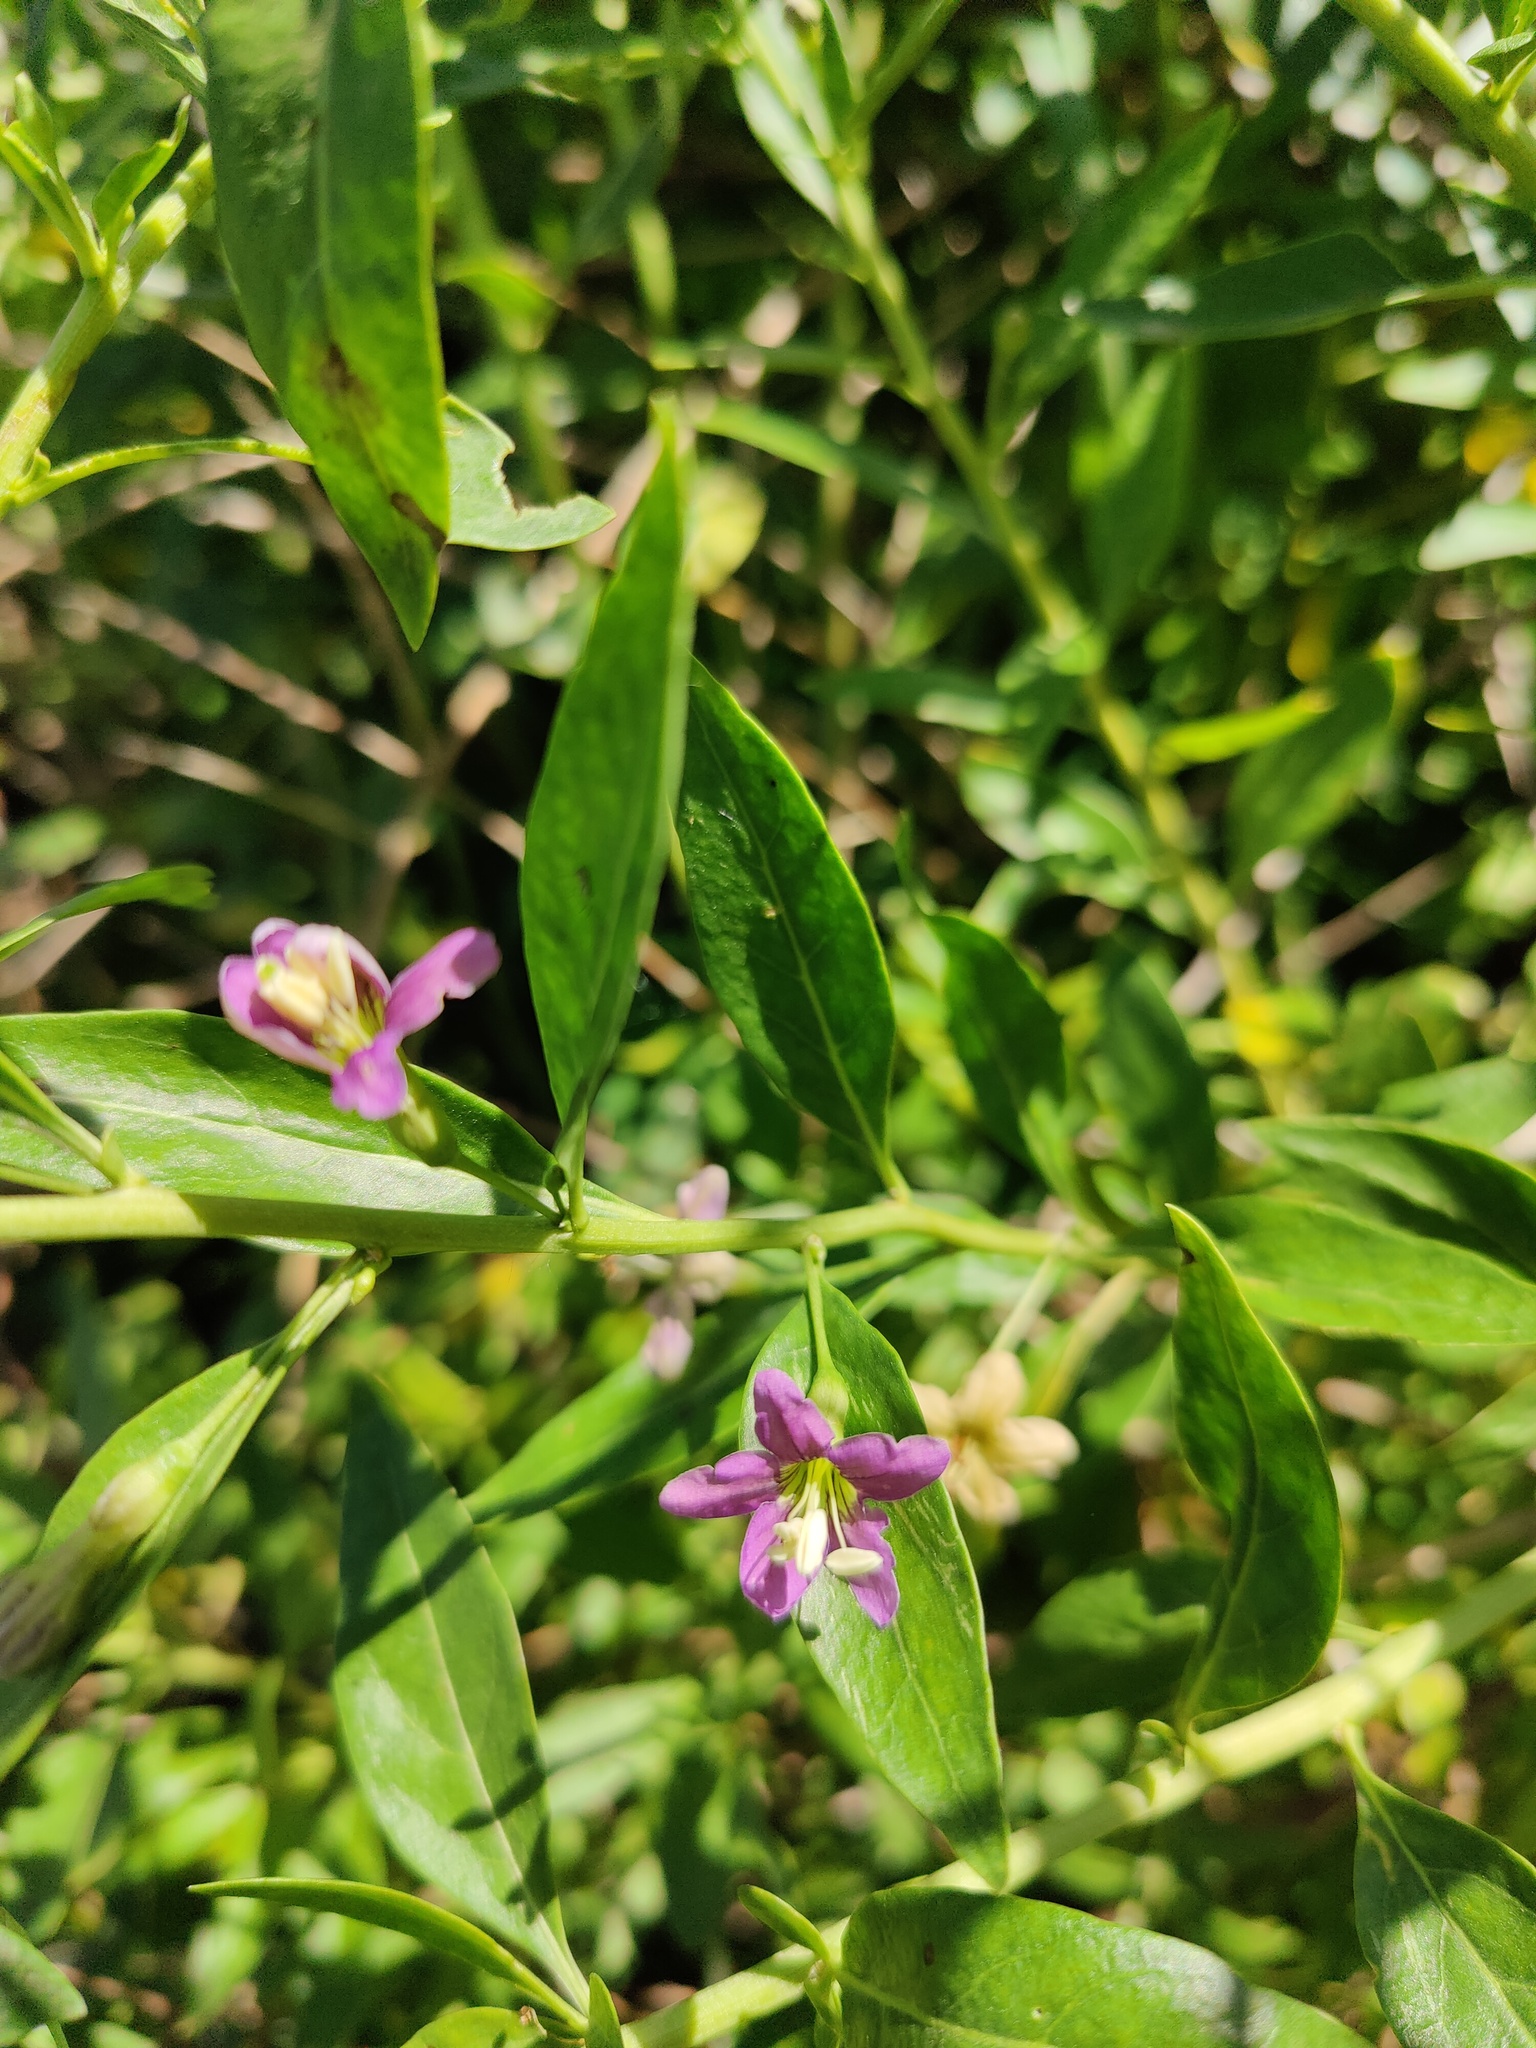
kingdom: Plantae
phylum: Tracheophyta
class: Magnoliopsida
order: Solanales
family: Solanaceae
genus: Lycium
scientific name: Lycium barbarum
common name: Duke of argyll's teaplant
